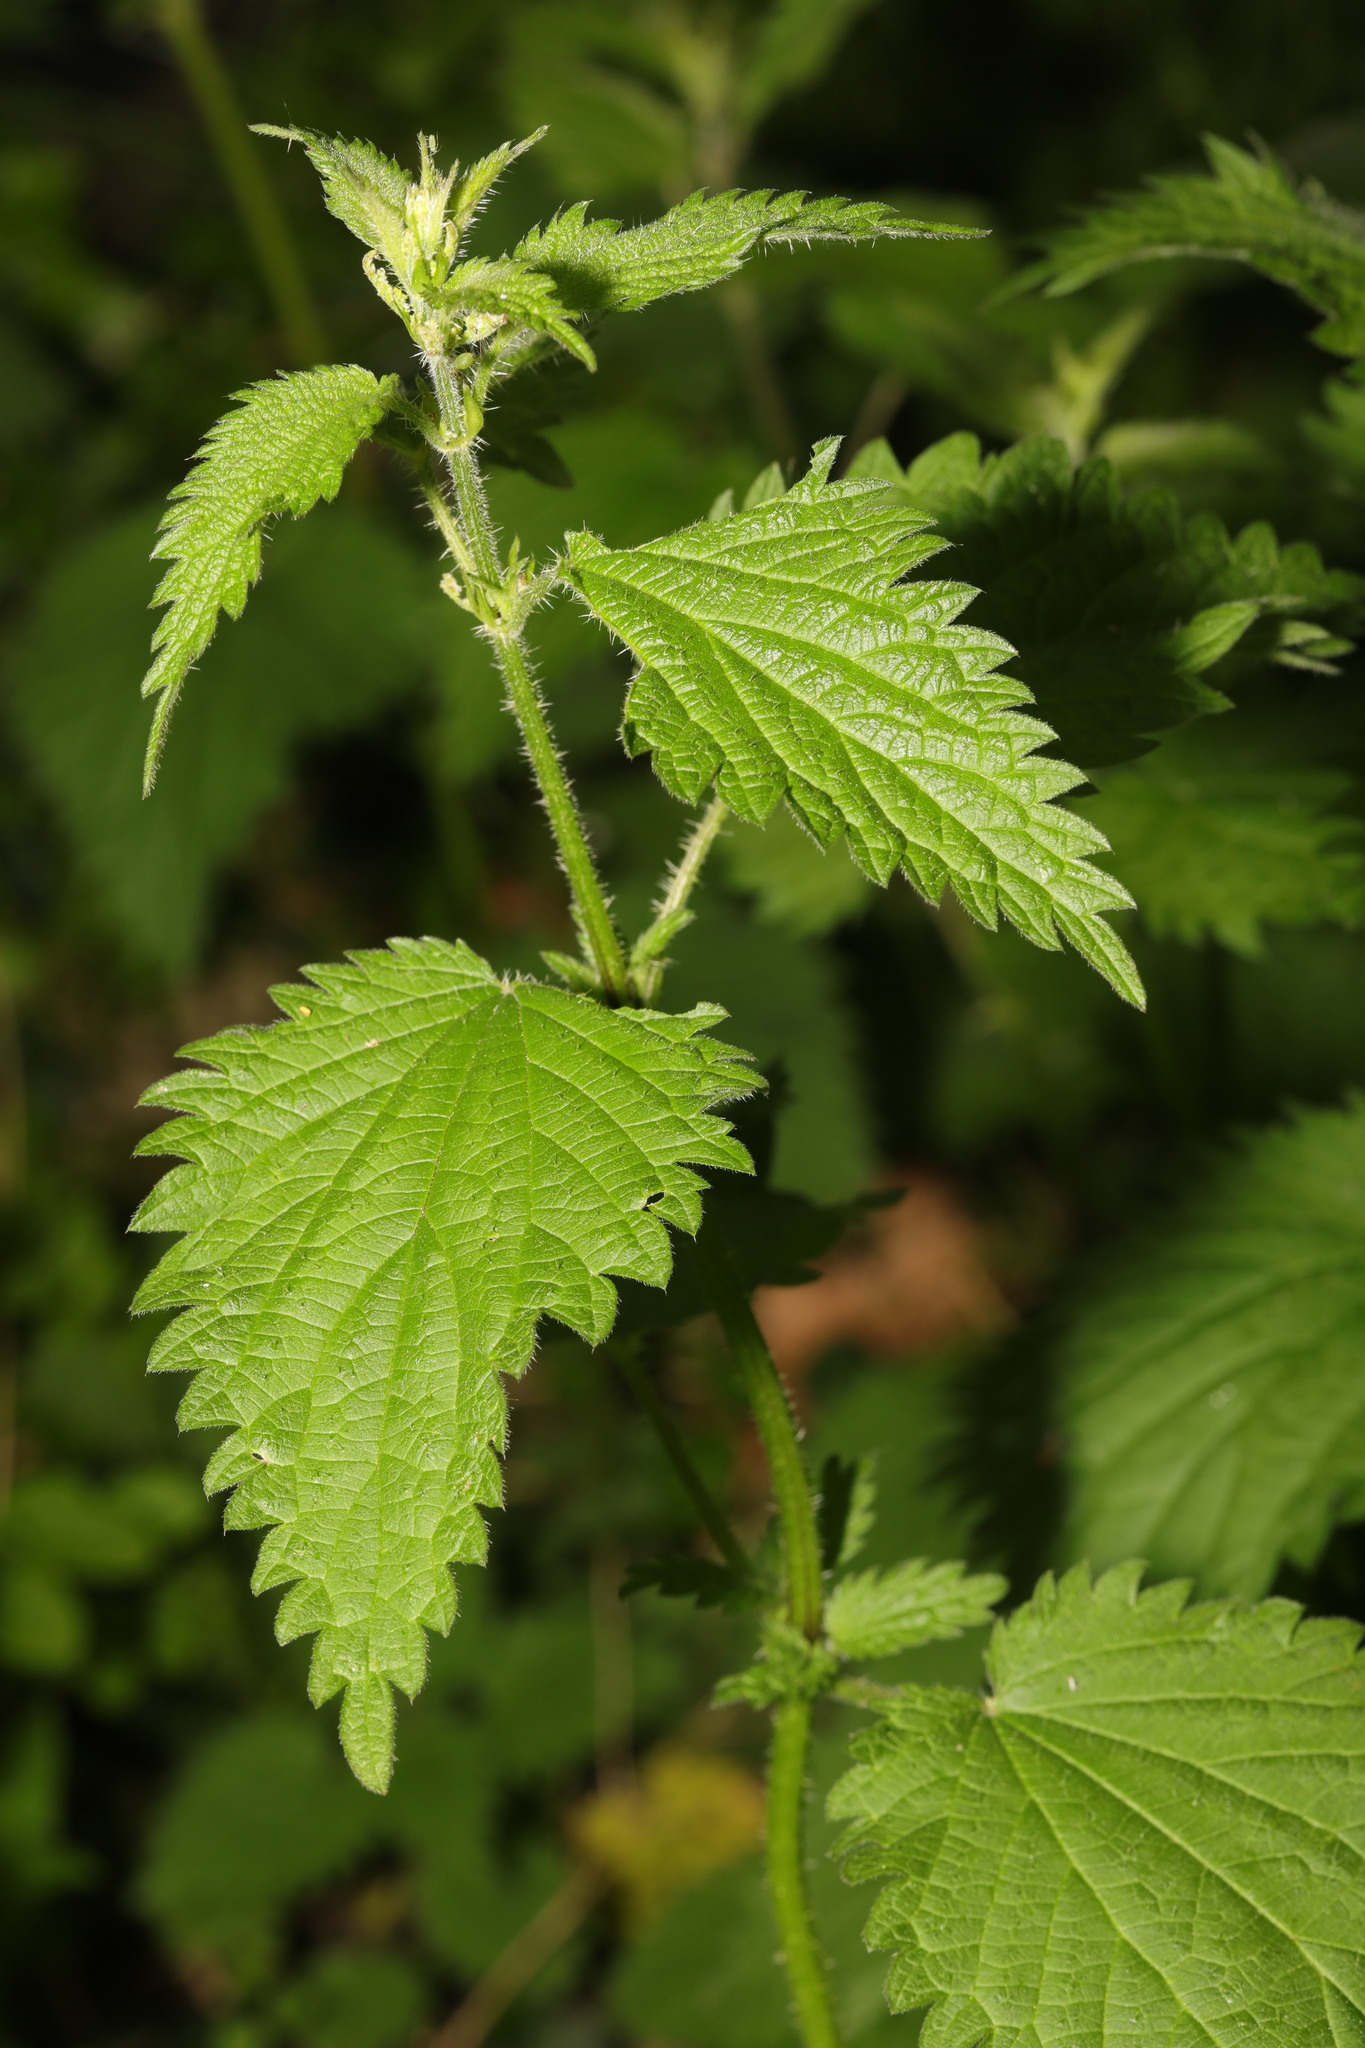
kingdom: Plantae
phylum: Tracheophyta
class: Magnoliopsida
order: Rosales
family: Urticaceae
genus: Urtica
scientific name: Urtica dioica
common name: Common nettle
